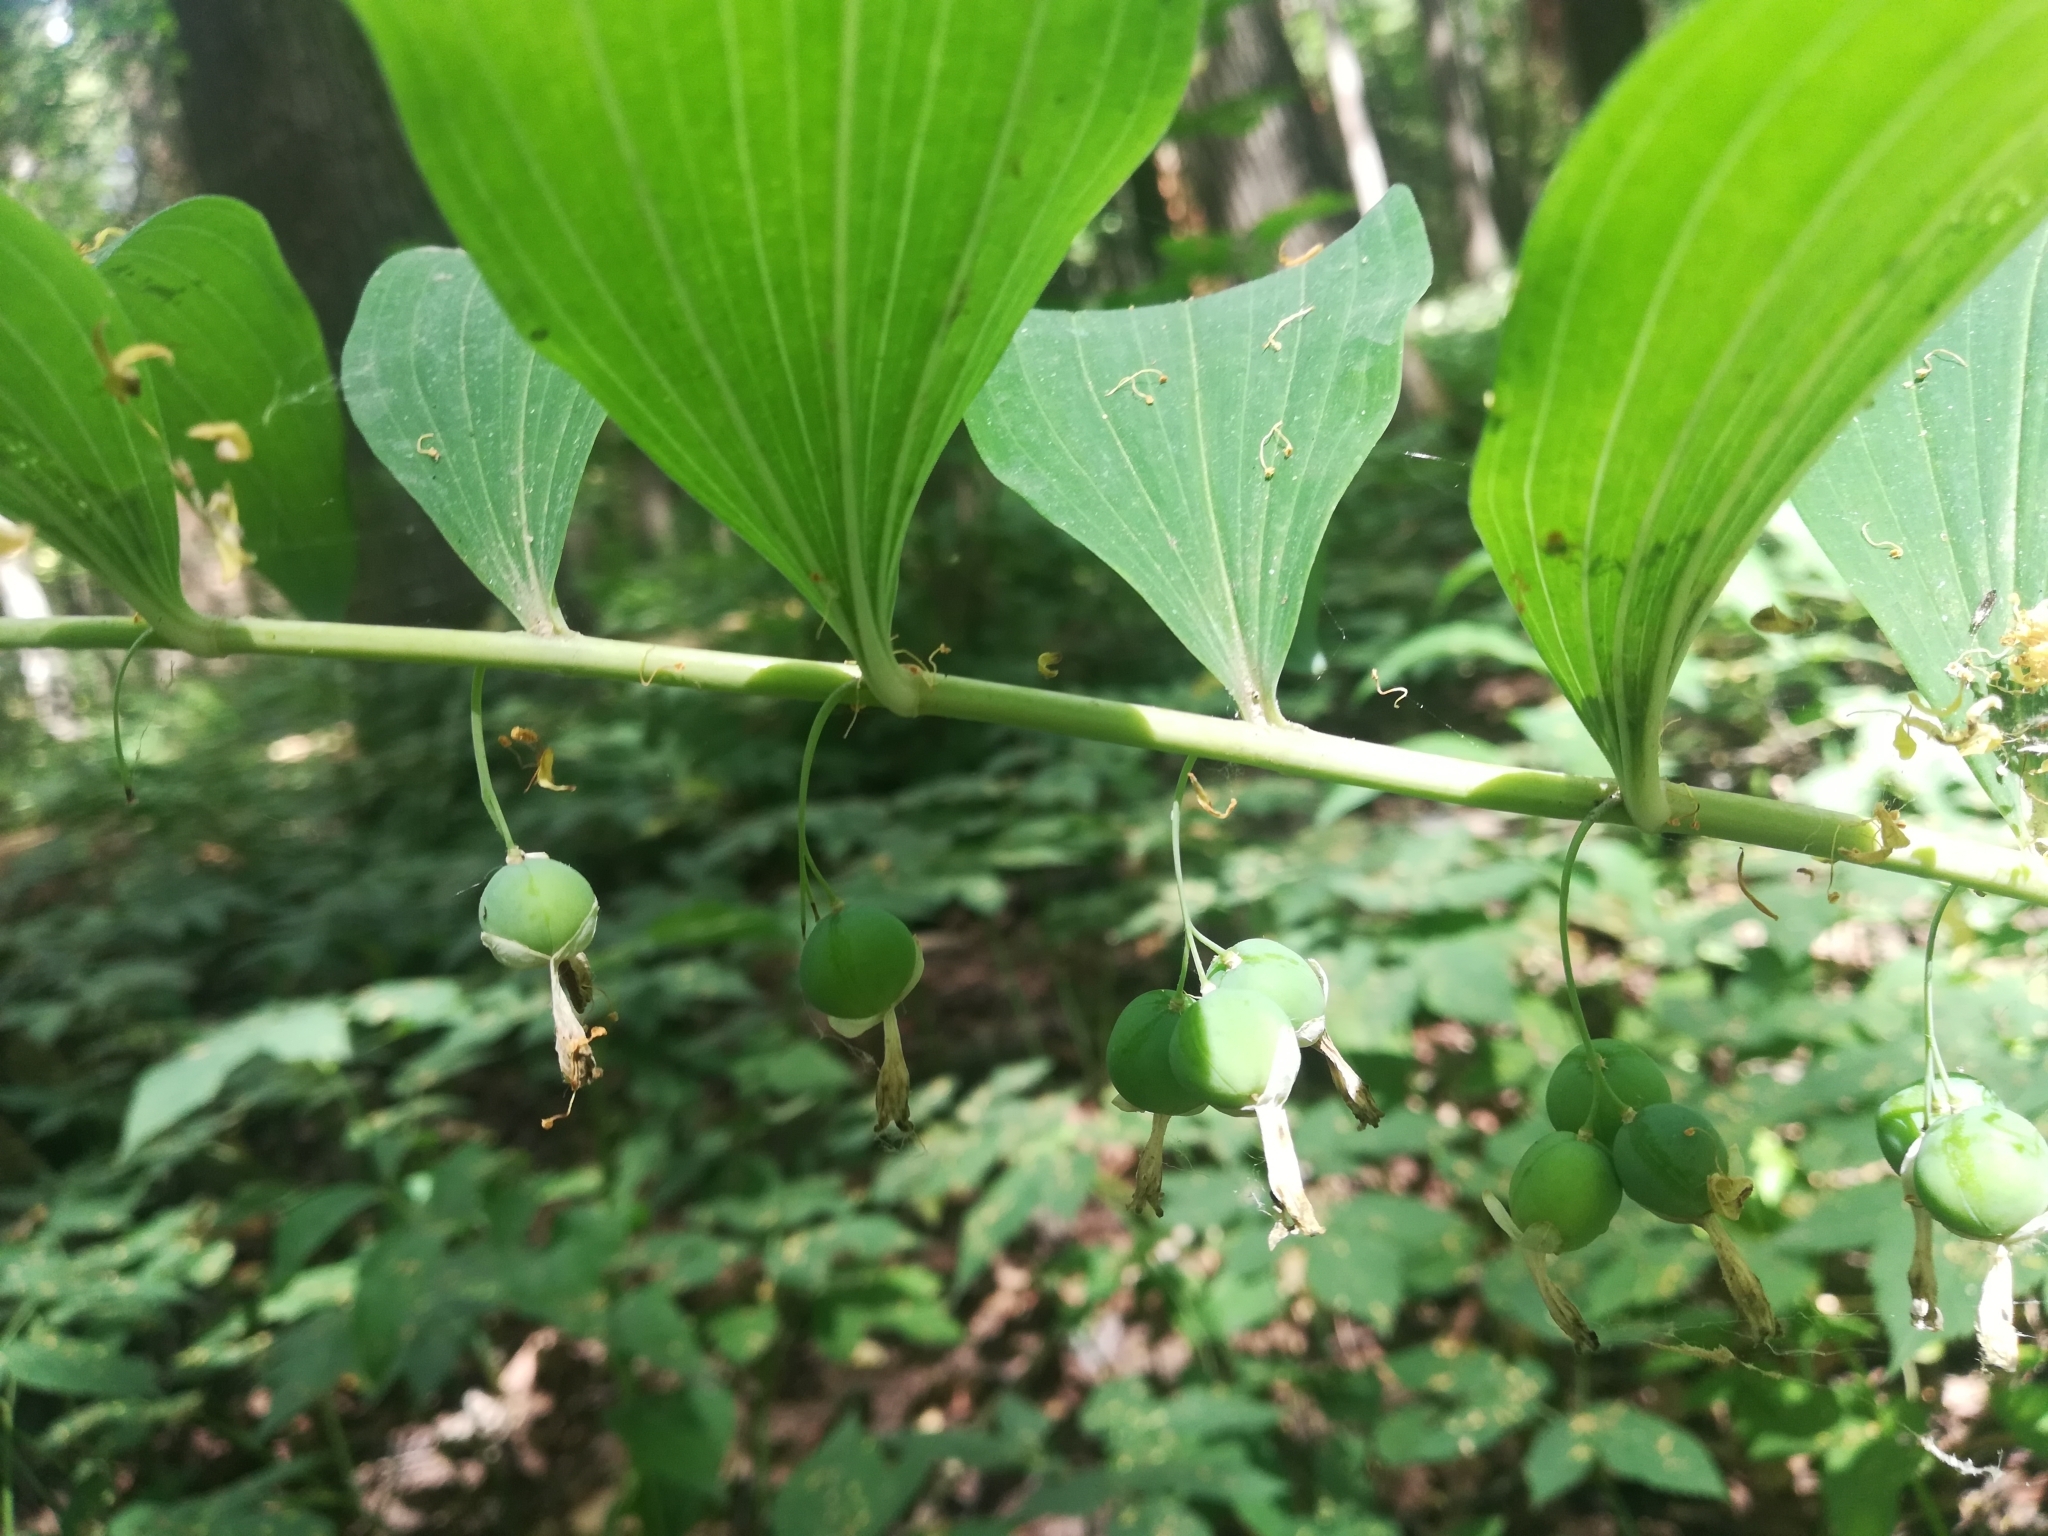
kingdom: Plantae
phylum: Tracheophyta
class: Liliopsida
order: Asparagales
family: Asparagaceae
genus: Polygonatum
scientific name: Polygonatum multiflorum
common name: Solomon's-seal
